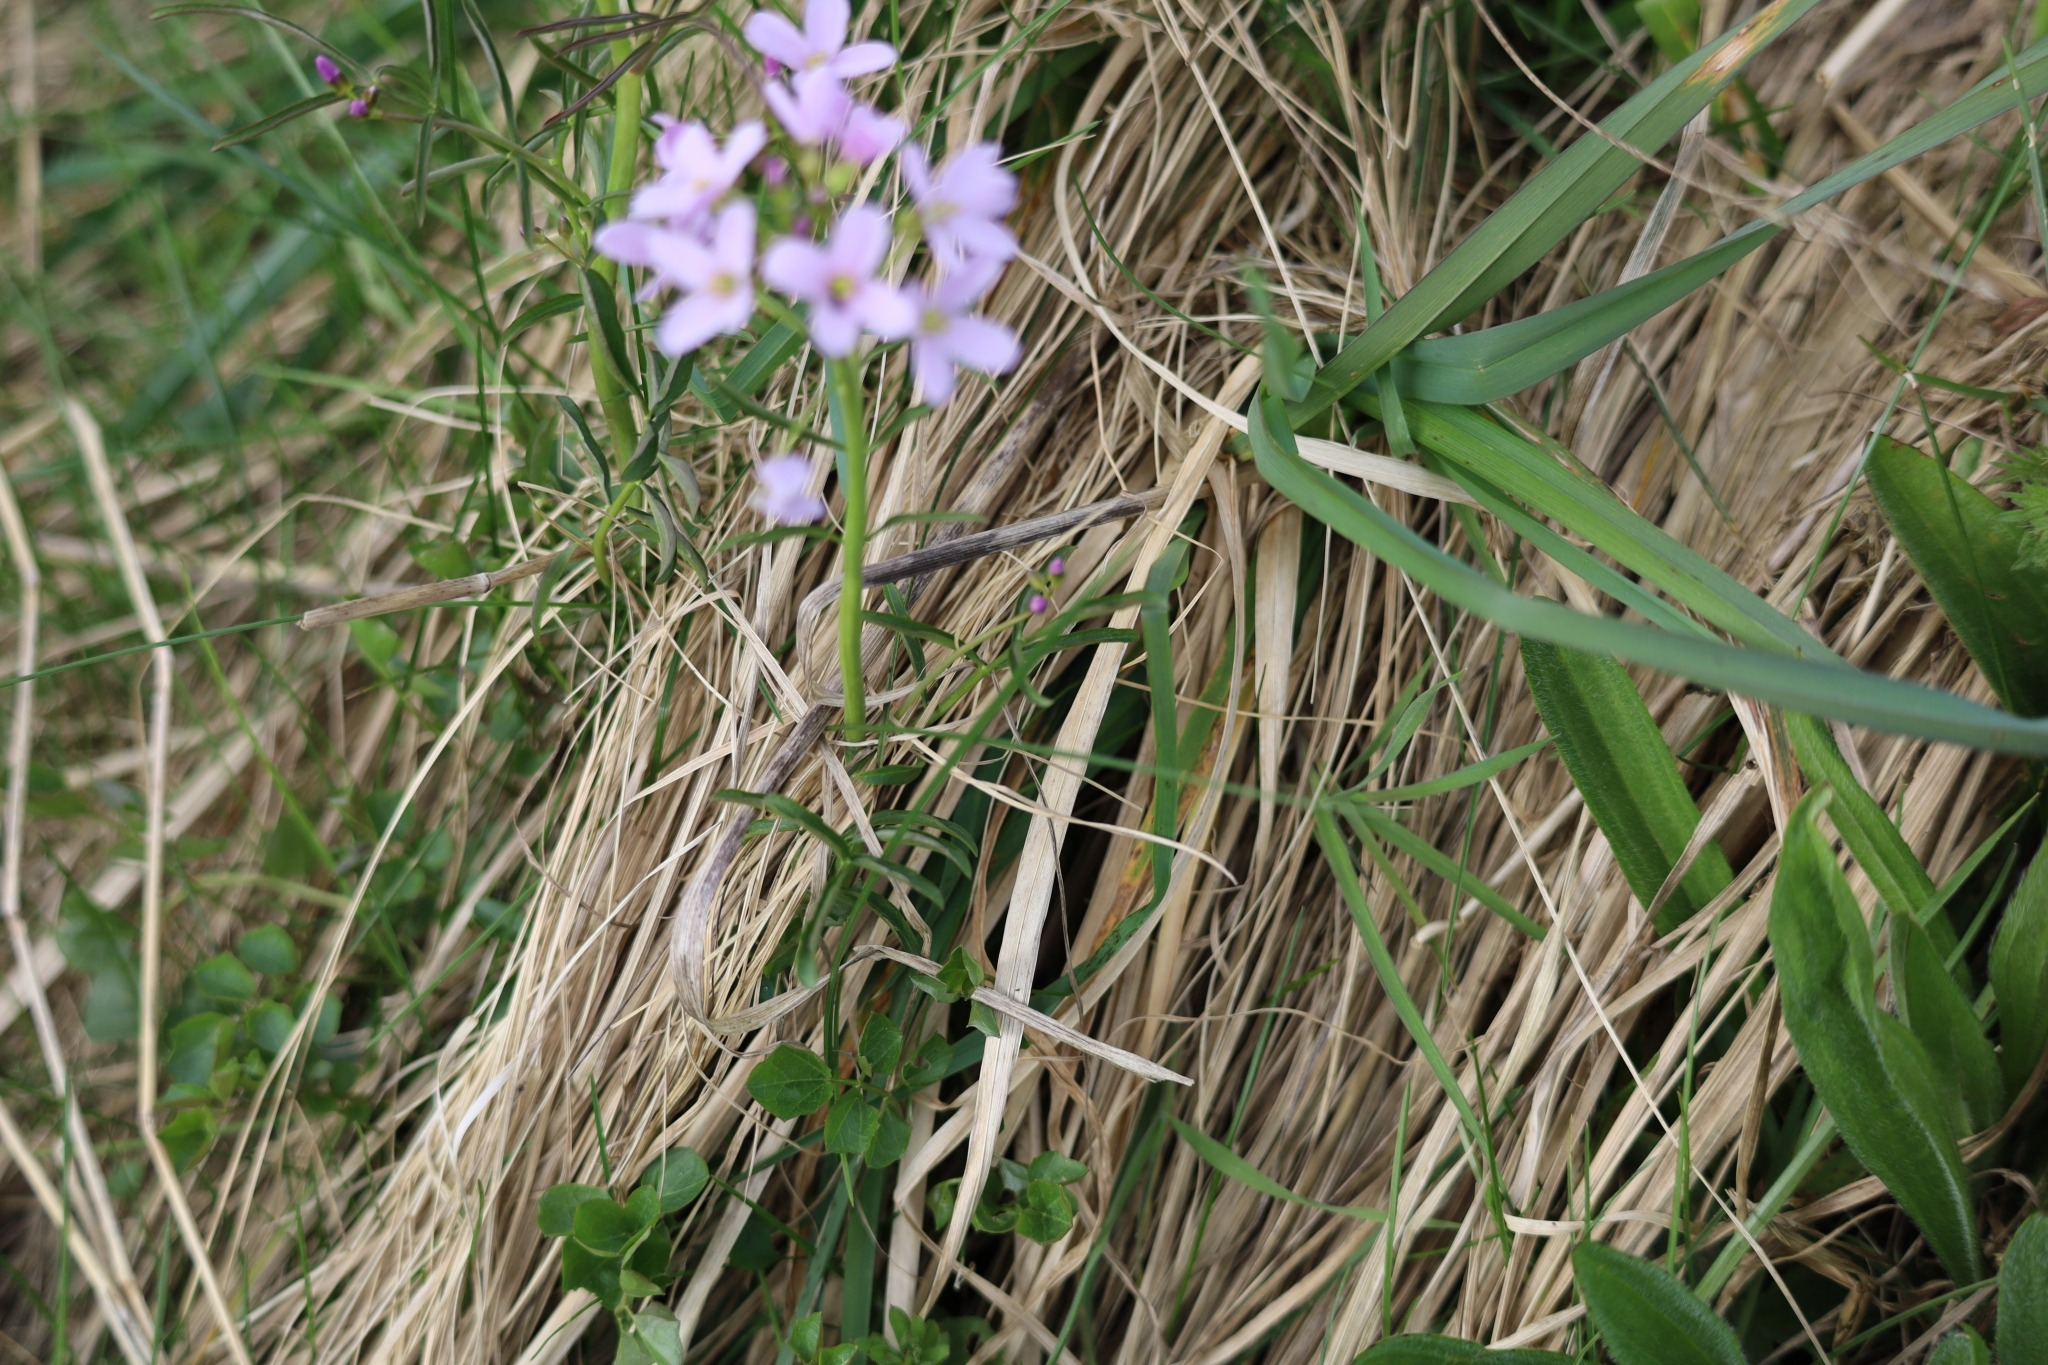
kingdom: Plantae
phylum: Tracheophyta
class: Magnoliopsida
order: Brassicales
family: Brassicaceae
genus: Cardamine
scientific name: Cardamine pratensis
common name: Cuckoo flower
